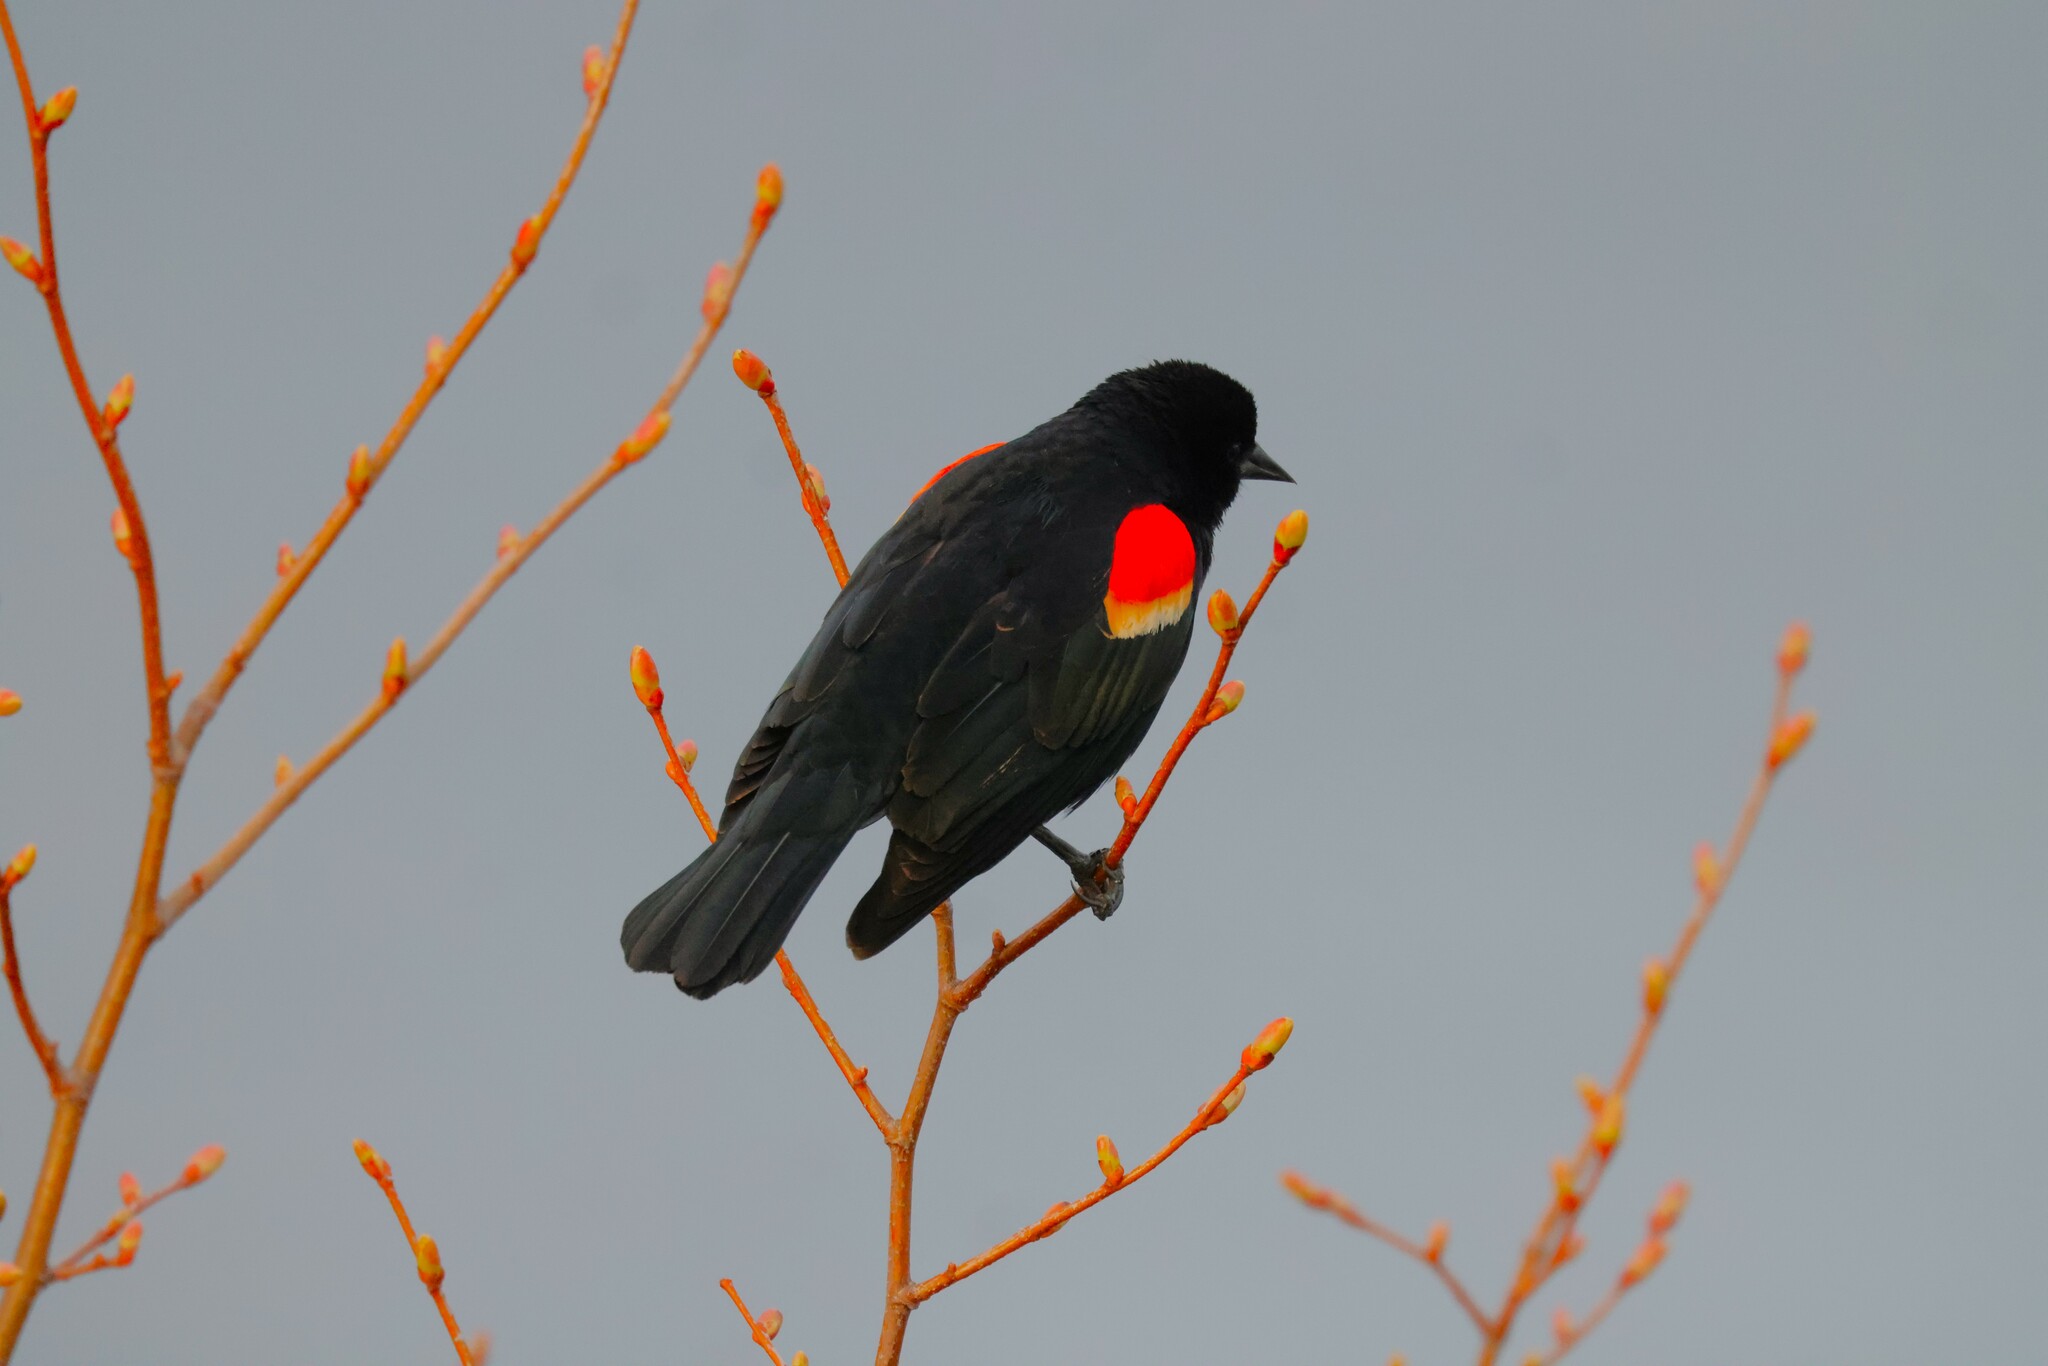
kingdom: Animalia
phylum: Chordata
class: Aves
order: Passeriformes
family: Icteridae
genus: Agelaius
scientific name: Agelaius phoeniceus
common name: Red-winged blackbird
